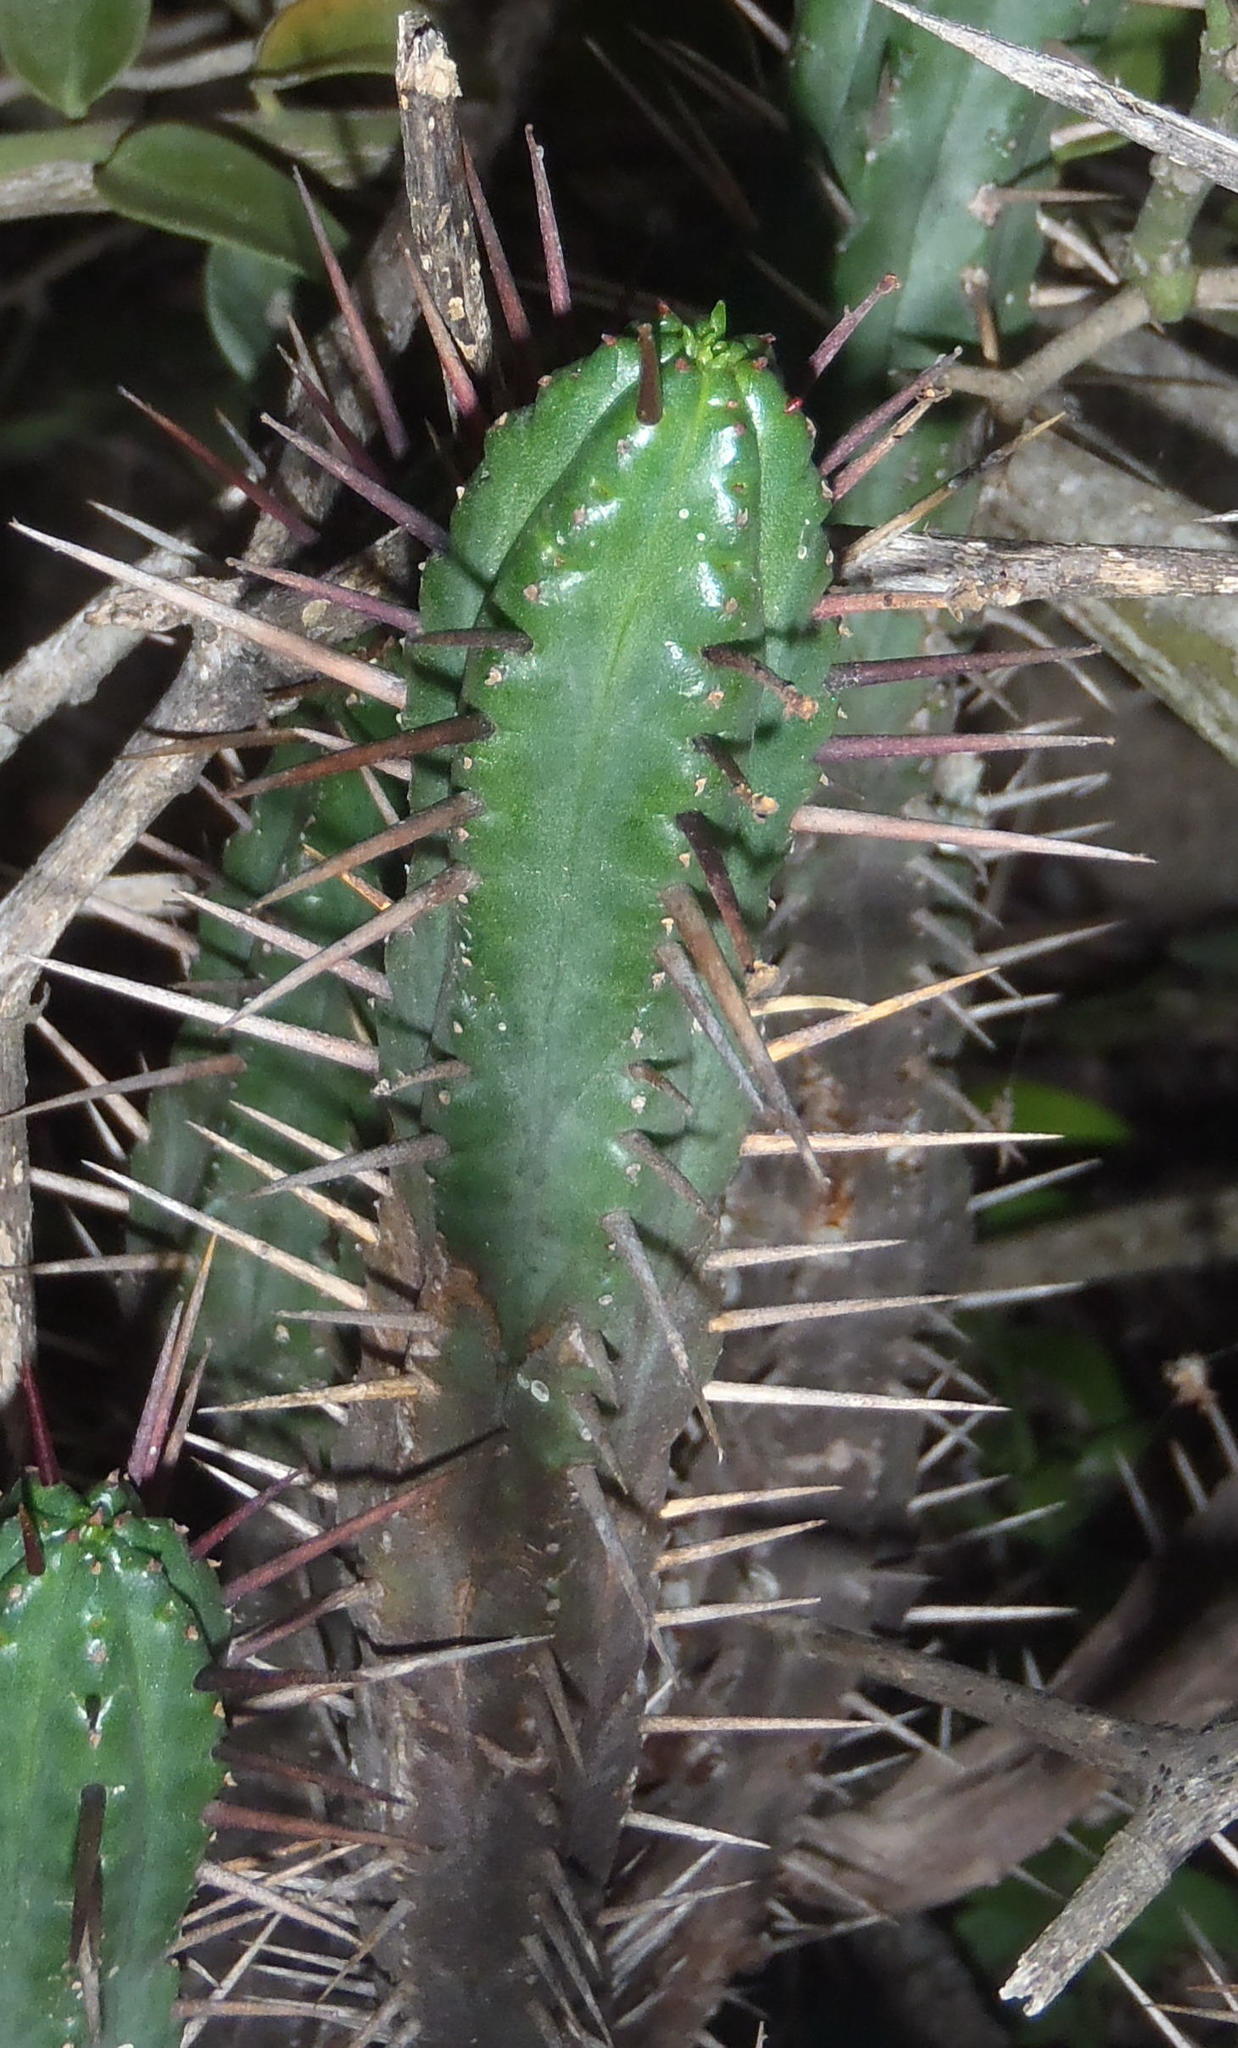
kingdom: Plantae
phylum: Tracheophyta
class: Magnoliopsida
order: Malpighiales
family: Euphorbiaceae
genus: Euphorbia
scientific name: Euphorbia heptagona
